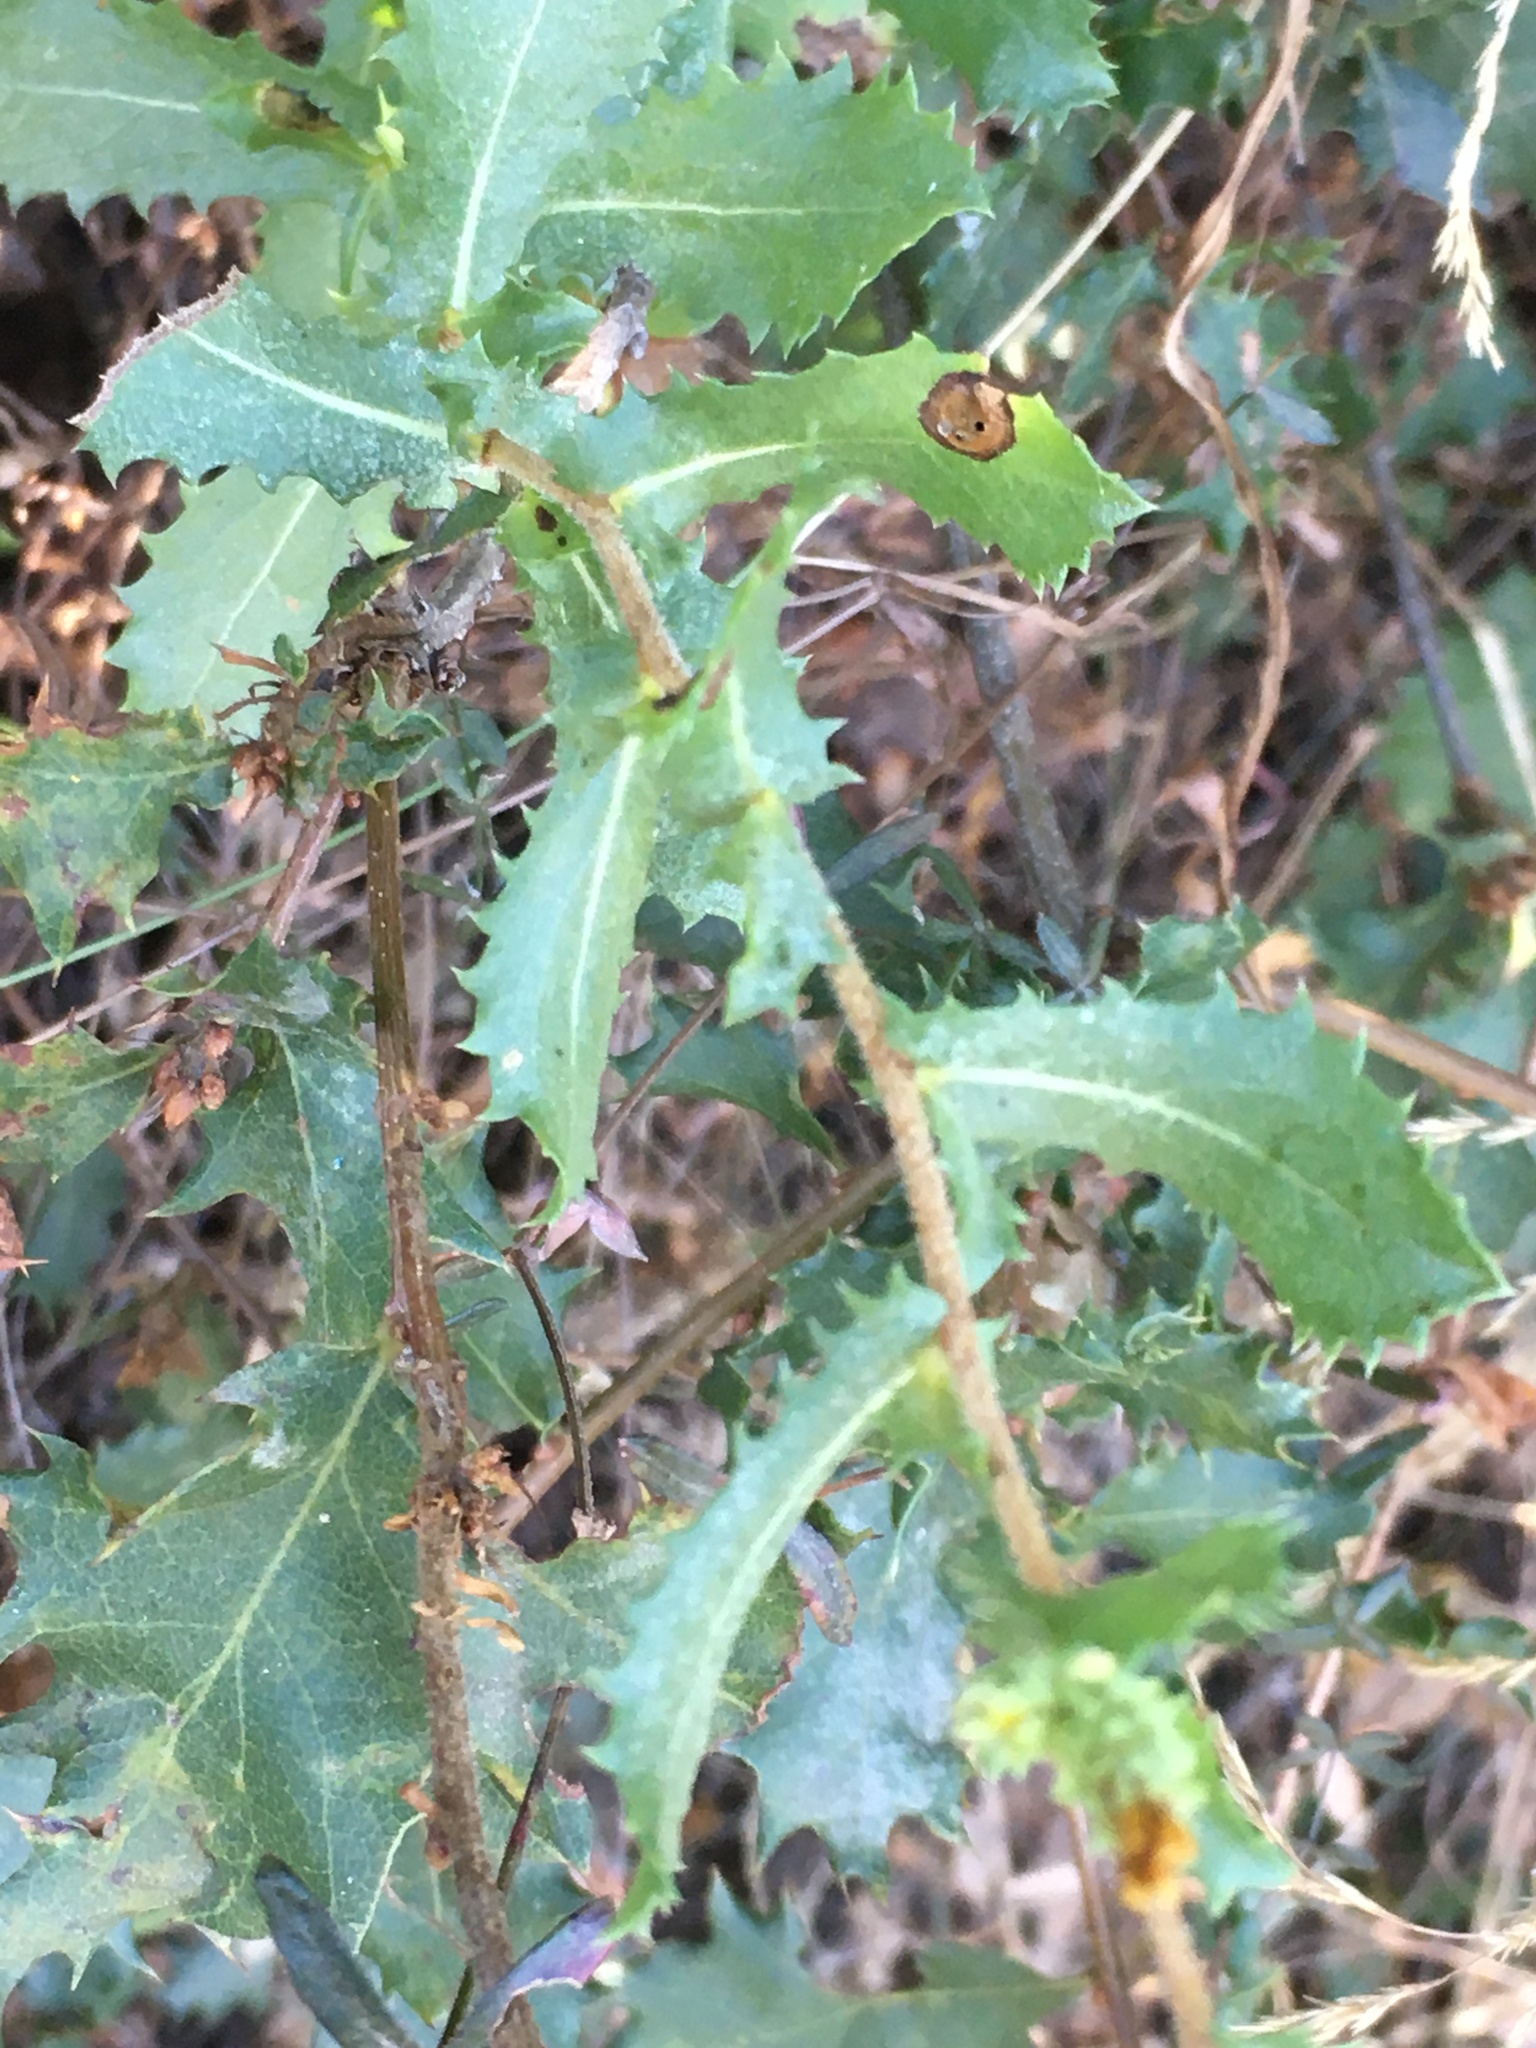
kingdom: Plantae
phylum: Tracheophyta
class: Magnoliopsida
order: Asterales
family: Asteraceae
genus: Hazardia
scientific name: Hazardia squarrosa
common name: Saw-tooth goldenbush
